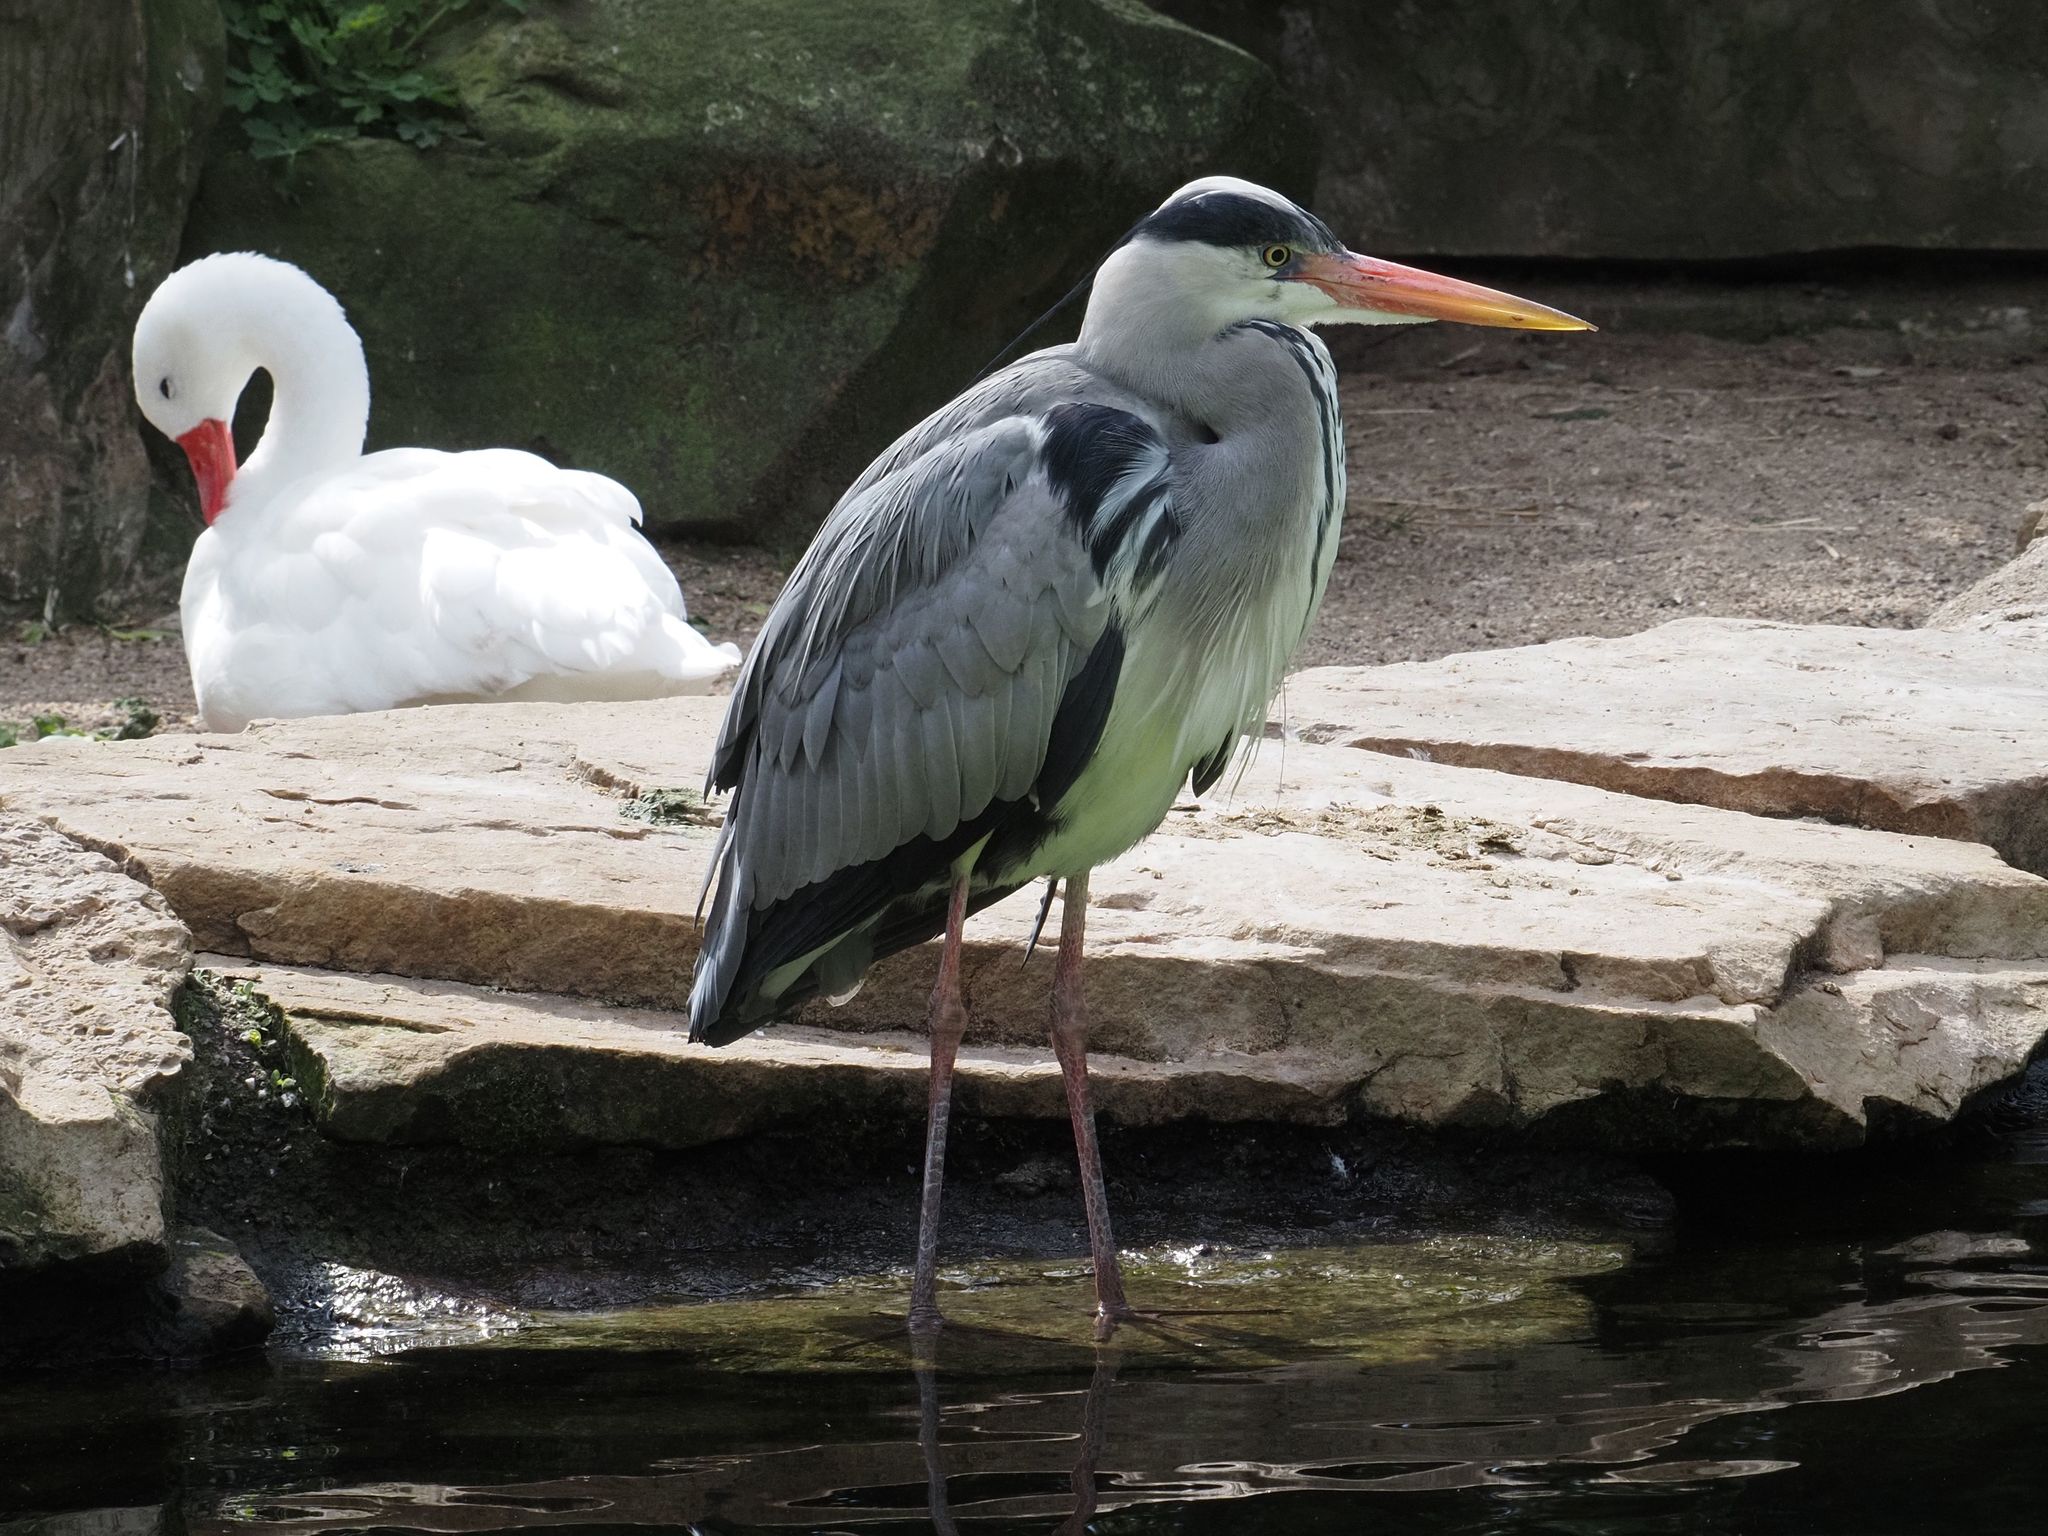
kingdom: Animalia
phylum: Chordata
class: Aves
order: Pelecaniformes
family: Ardeidae
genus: Ardea
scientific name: Ardea cinerea
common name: Grey heron
